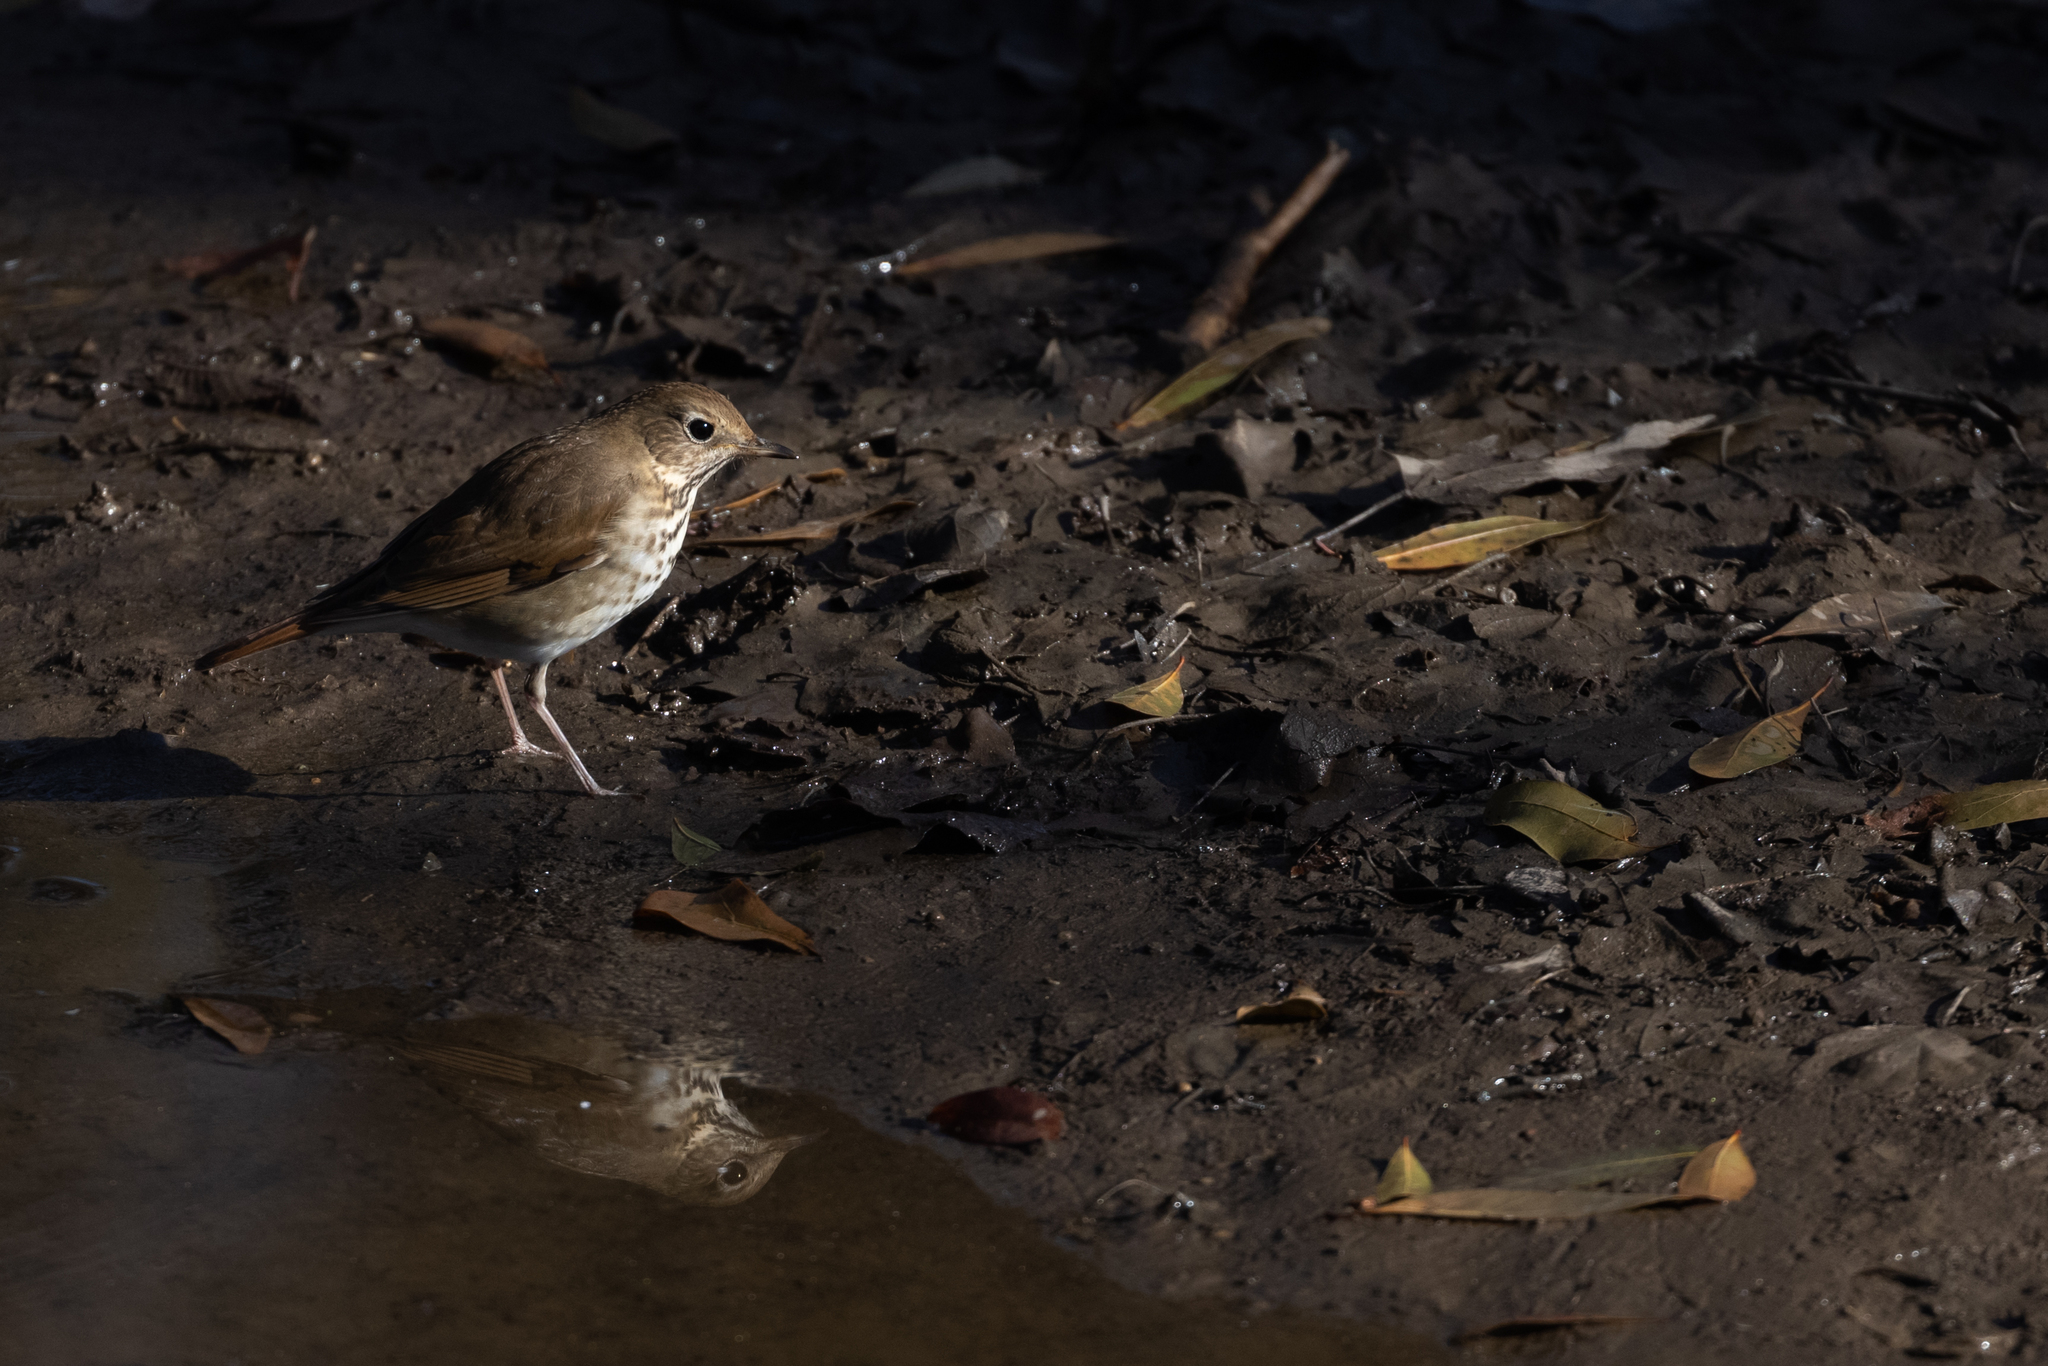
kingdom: Animalia
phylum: Chordata
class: Aves
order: Passeriformes
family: Turdidae
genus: Catharus
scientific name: Catharus guttatus
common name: Hermit thrush
